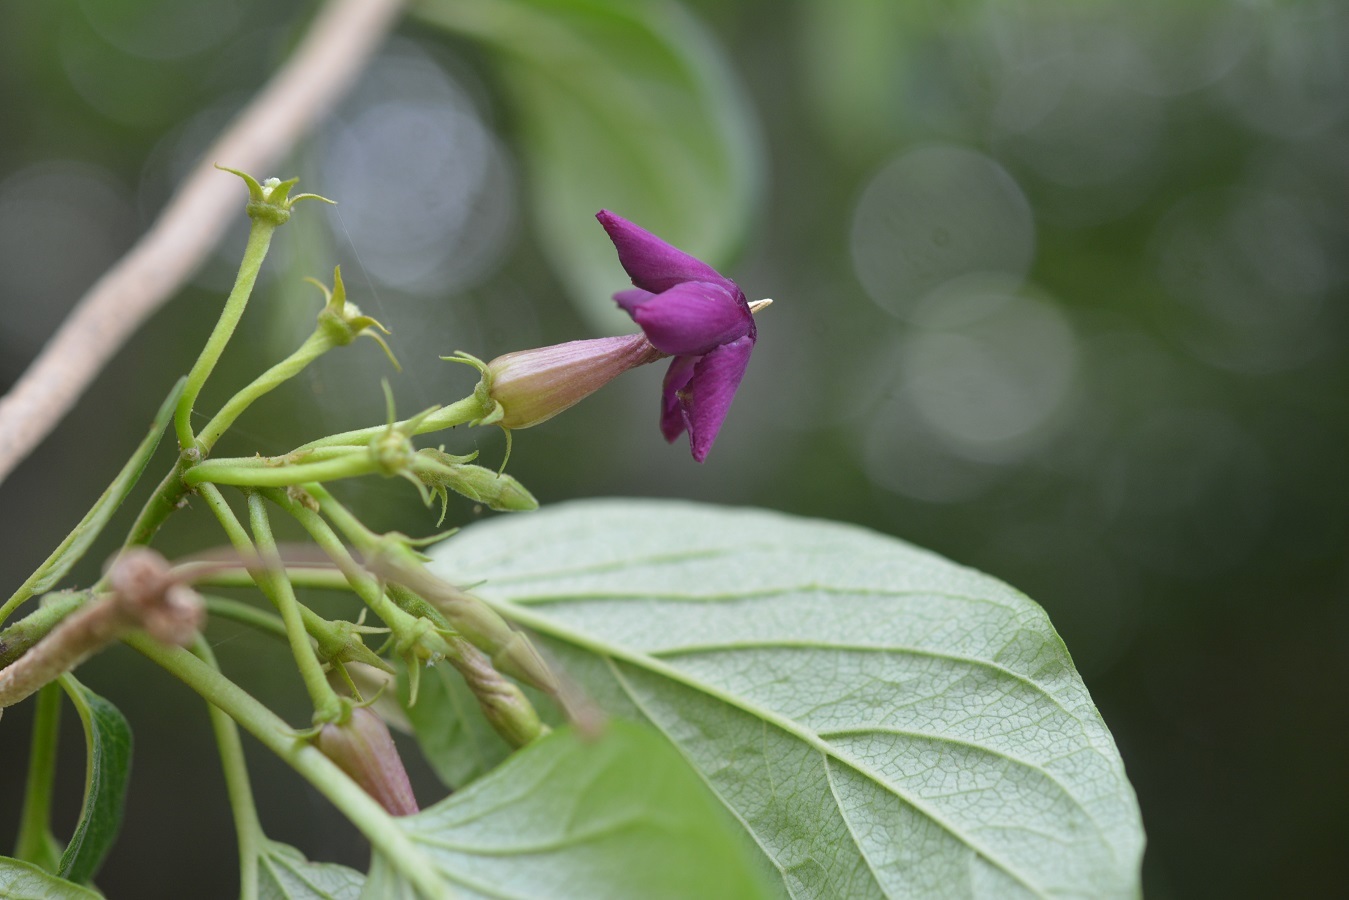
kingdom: Plantae
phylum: Tracheophyta
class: Magnoliopsida
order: Gentianales
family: Apocynaceae
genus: Laubertia
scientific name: Laubertia contorta
